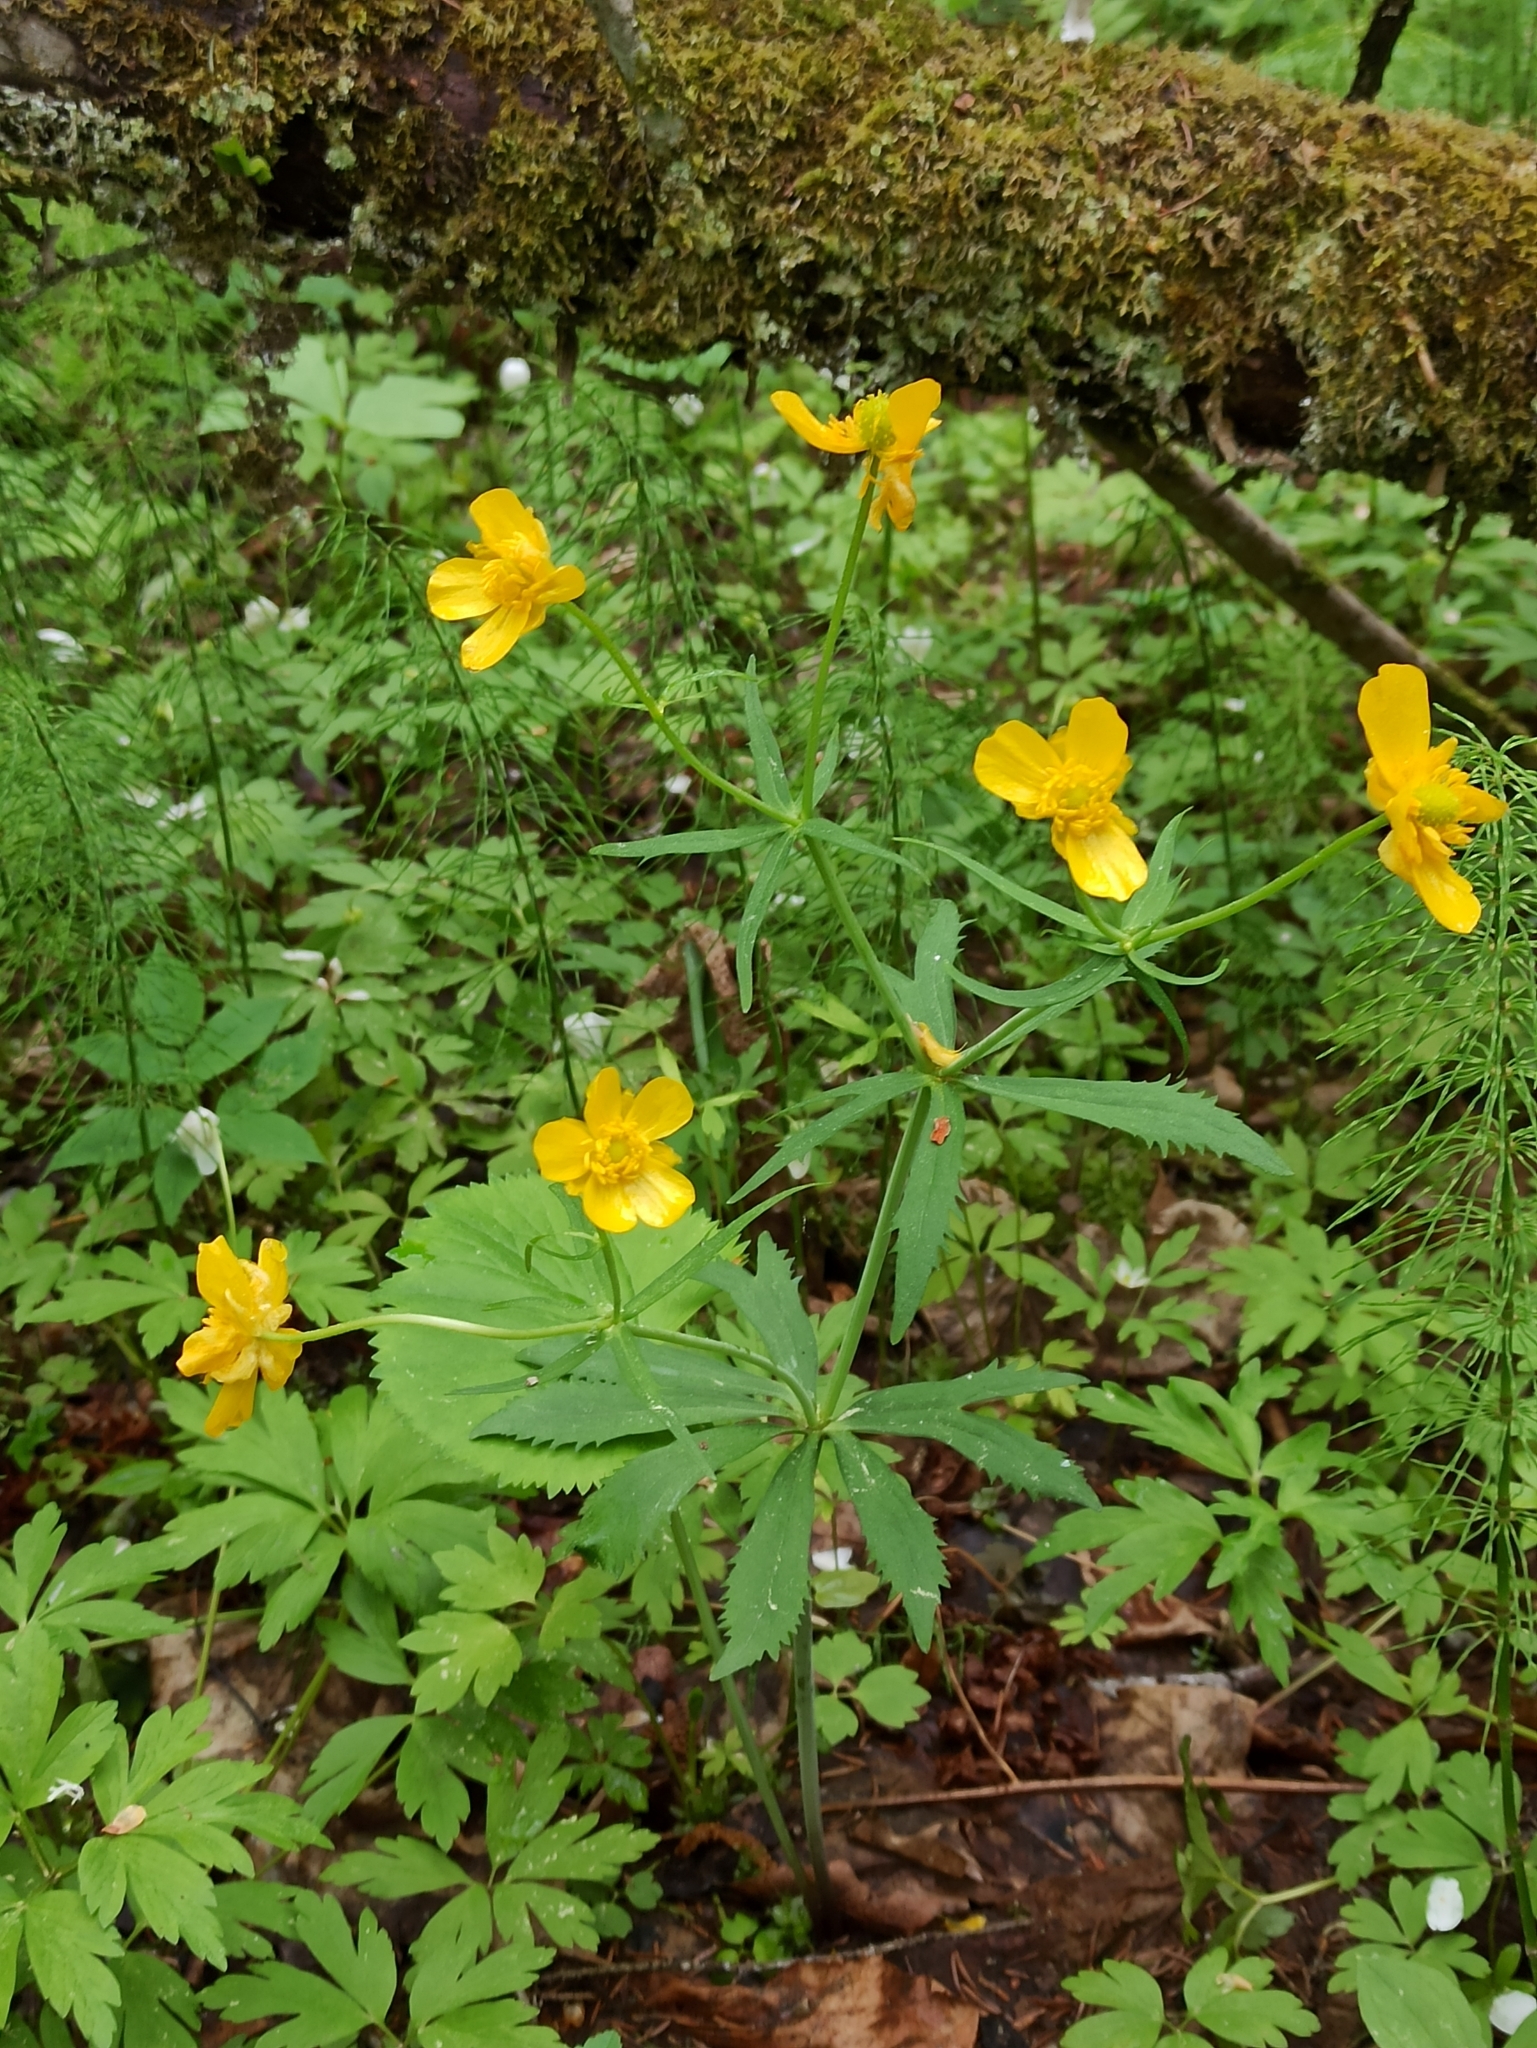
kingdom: Plantae
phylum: Tracheophyta
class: Magnoliopsida
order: Ranunculales
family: Ranunculaceae
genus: Ranunculus
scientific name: Ranunculus cassubicus
